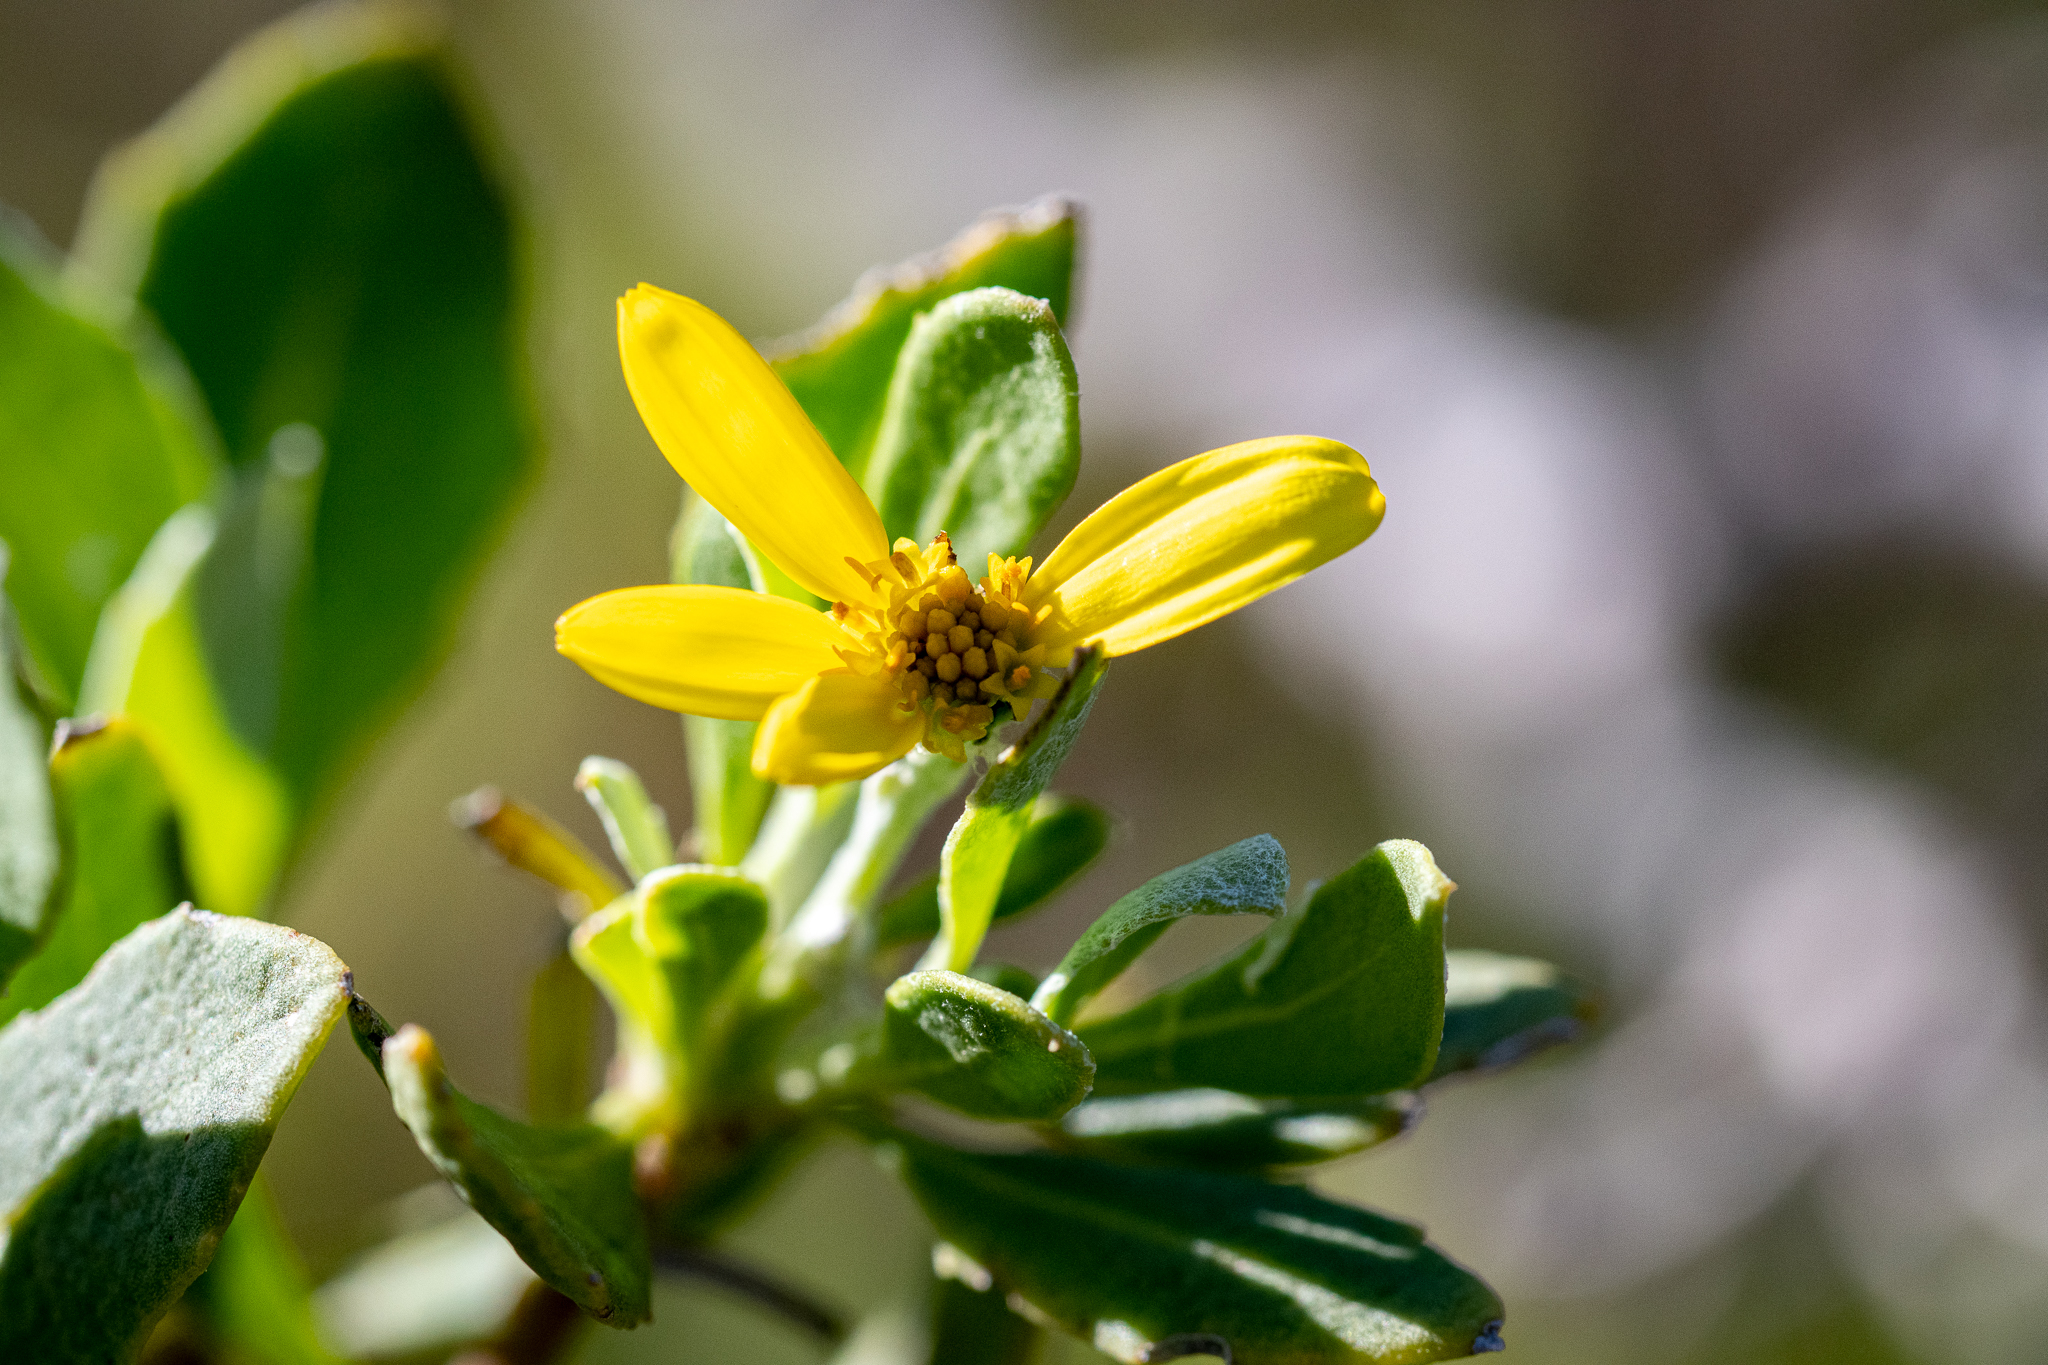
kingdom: Plantae
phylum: Tracheophyta
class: Magnoliopsida
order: Asterales
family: Asteraceae
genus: Osteospermum
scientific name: Osteospermum moniliferum
